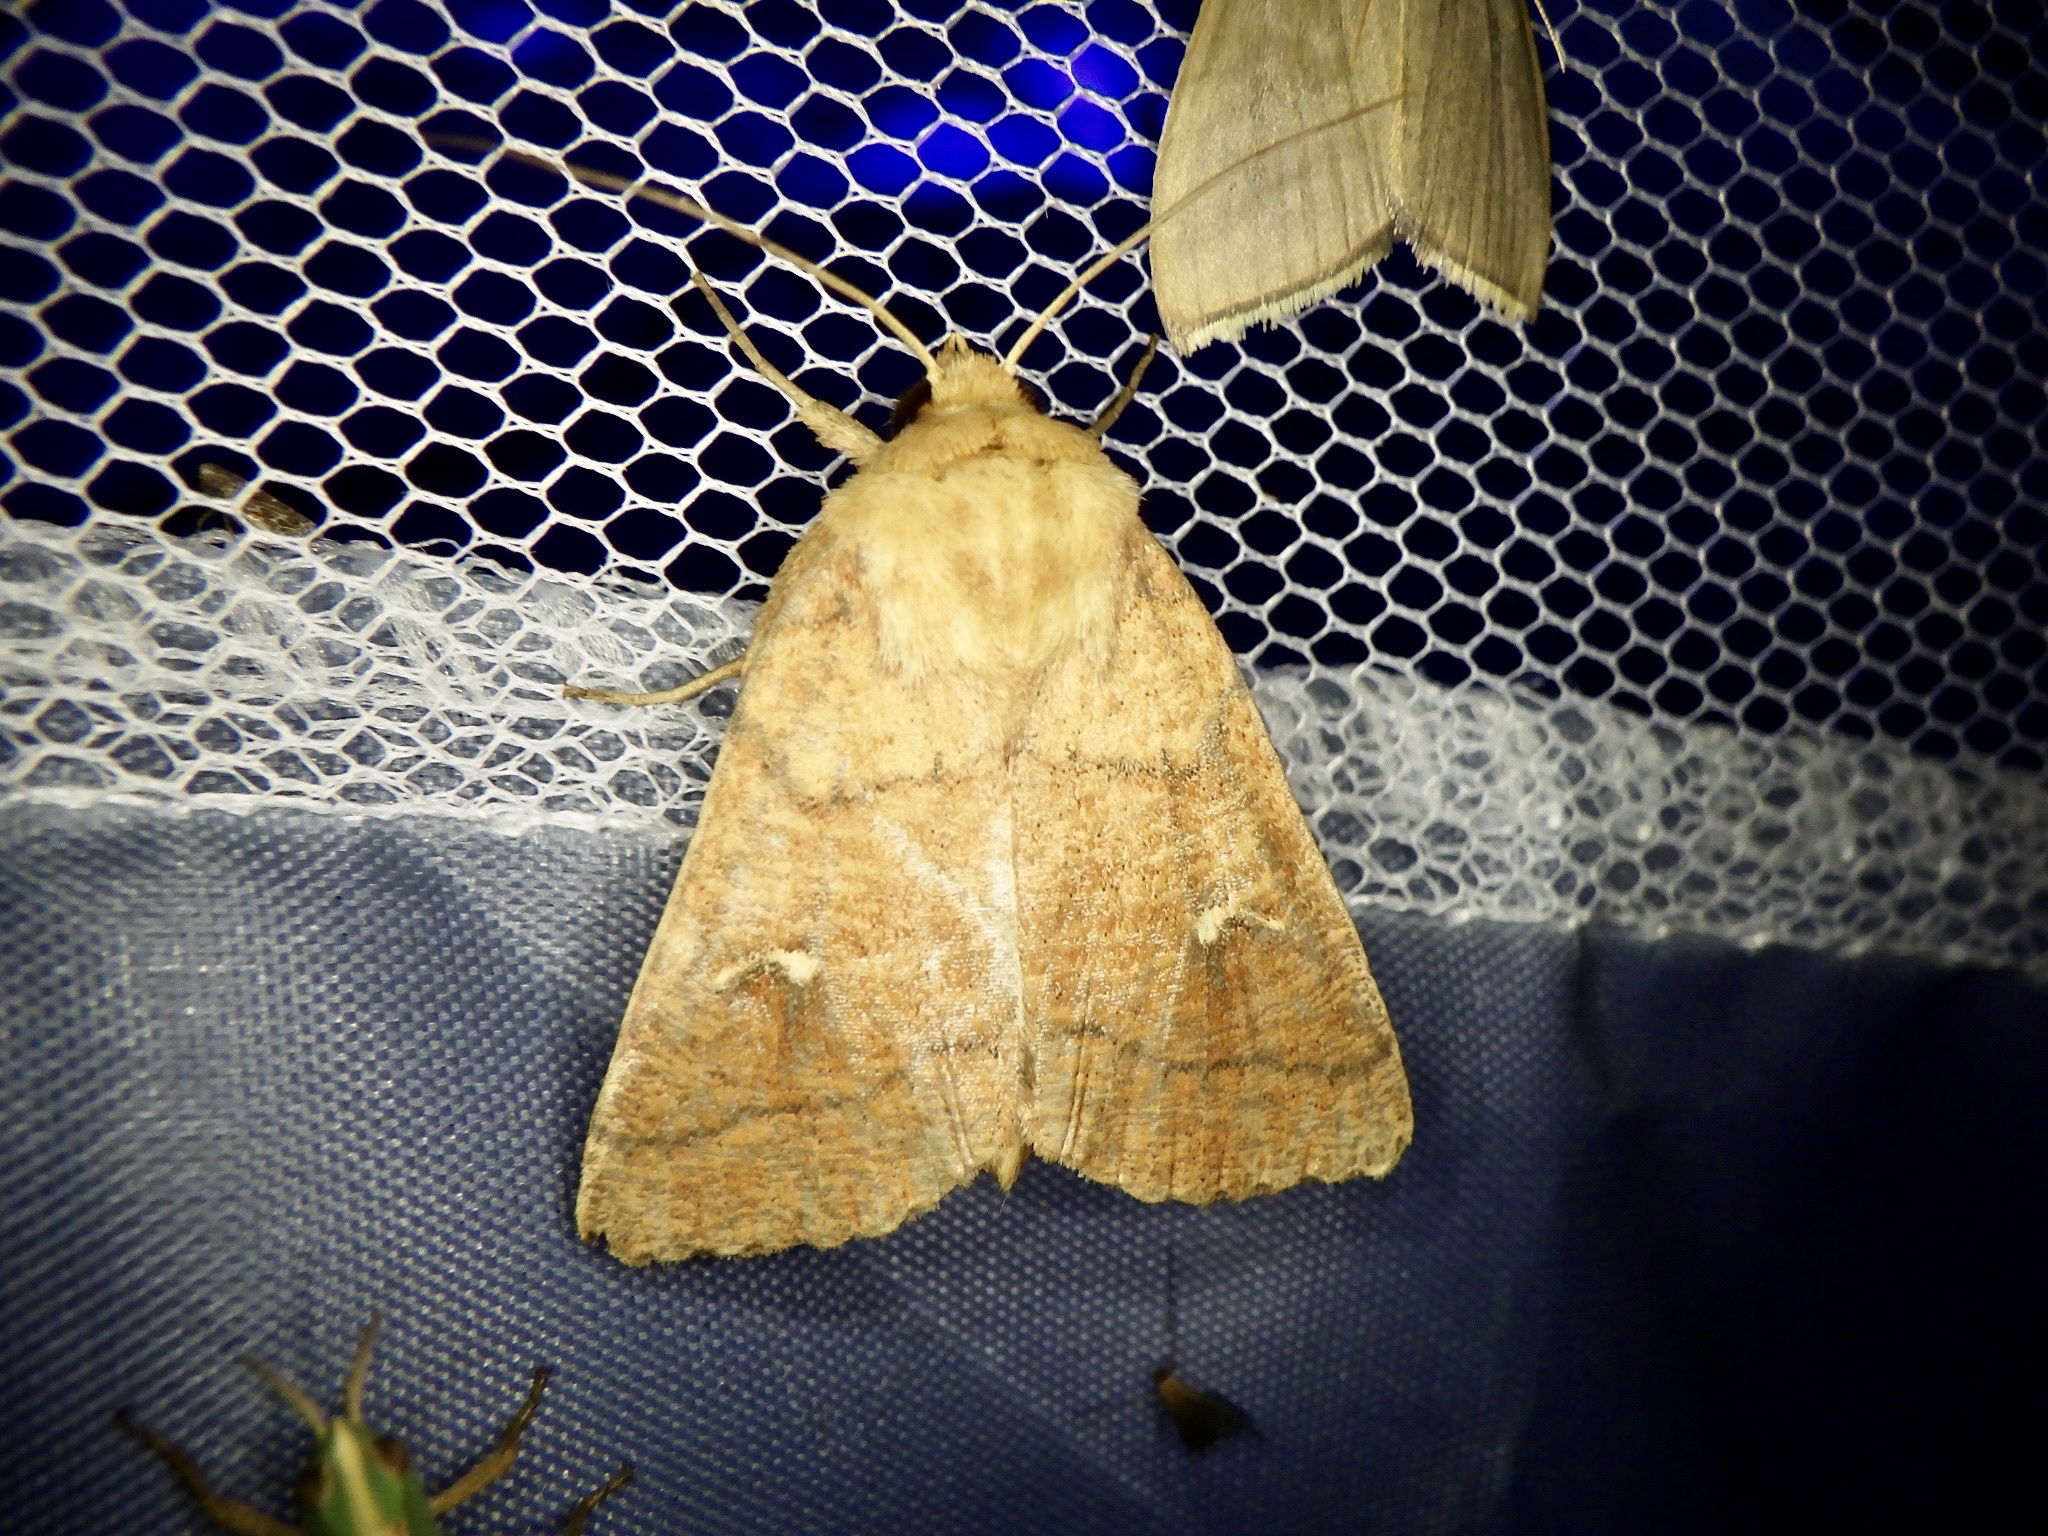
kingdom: Animalia
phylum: Arthropoda
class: Insecta
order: Lepidoptera
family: Noctuidae
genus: Mythimna
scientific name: Mythimna turca
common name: Double line
